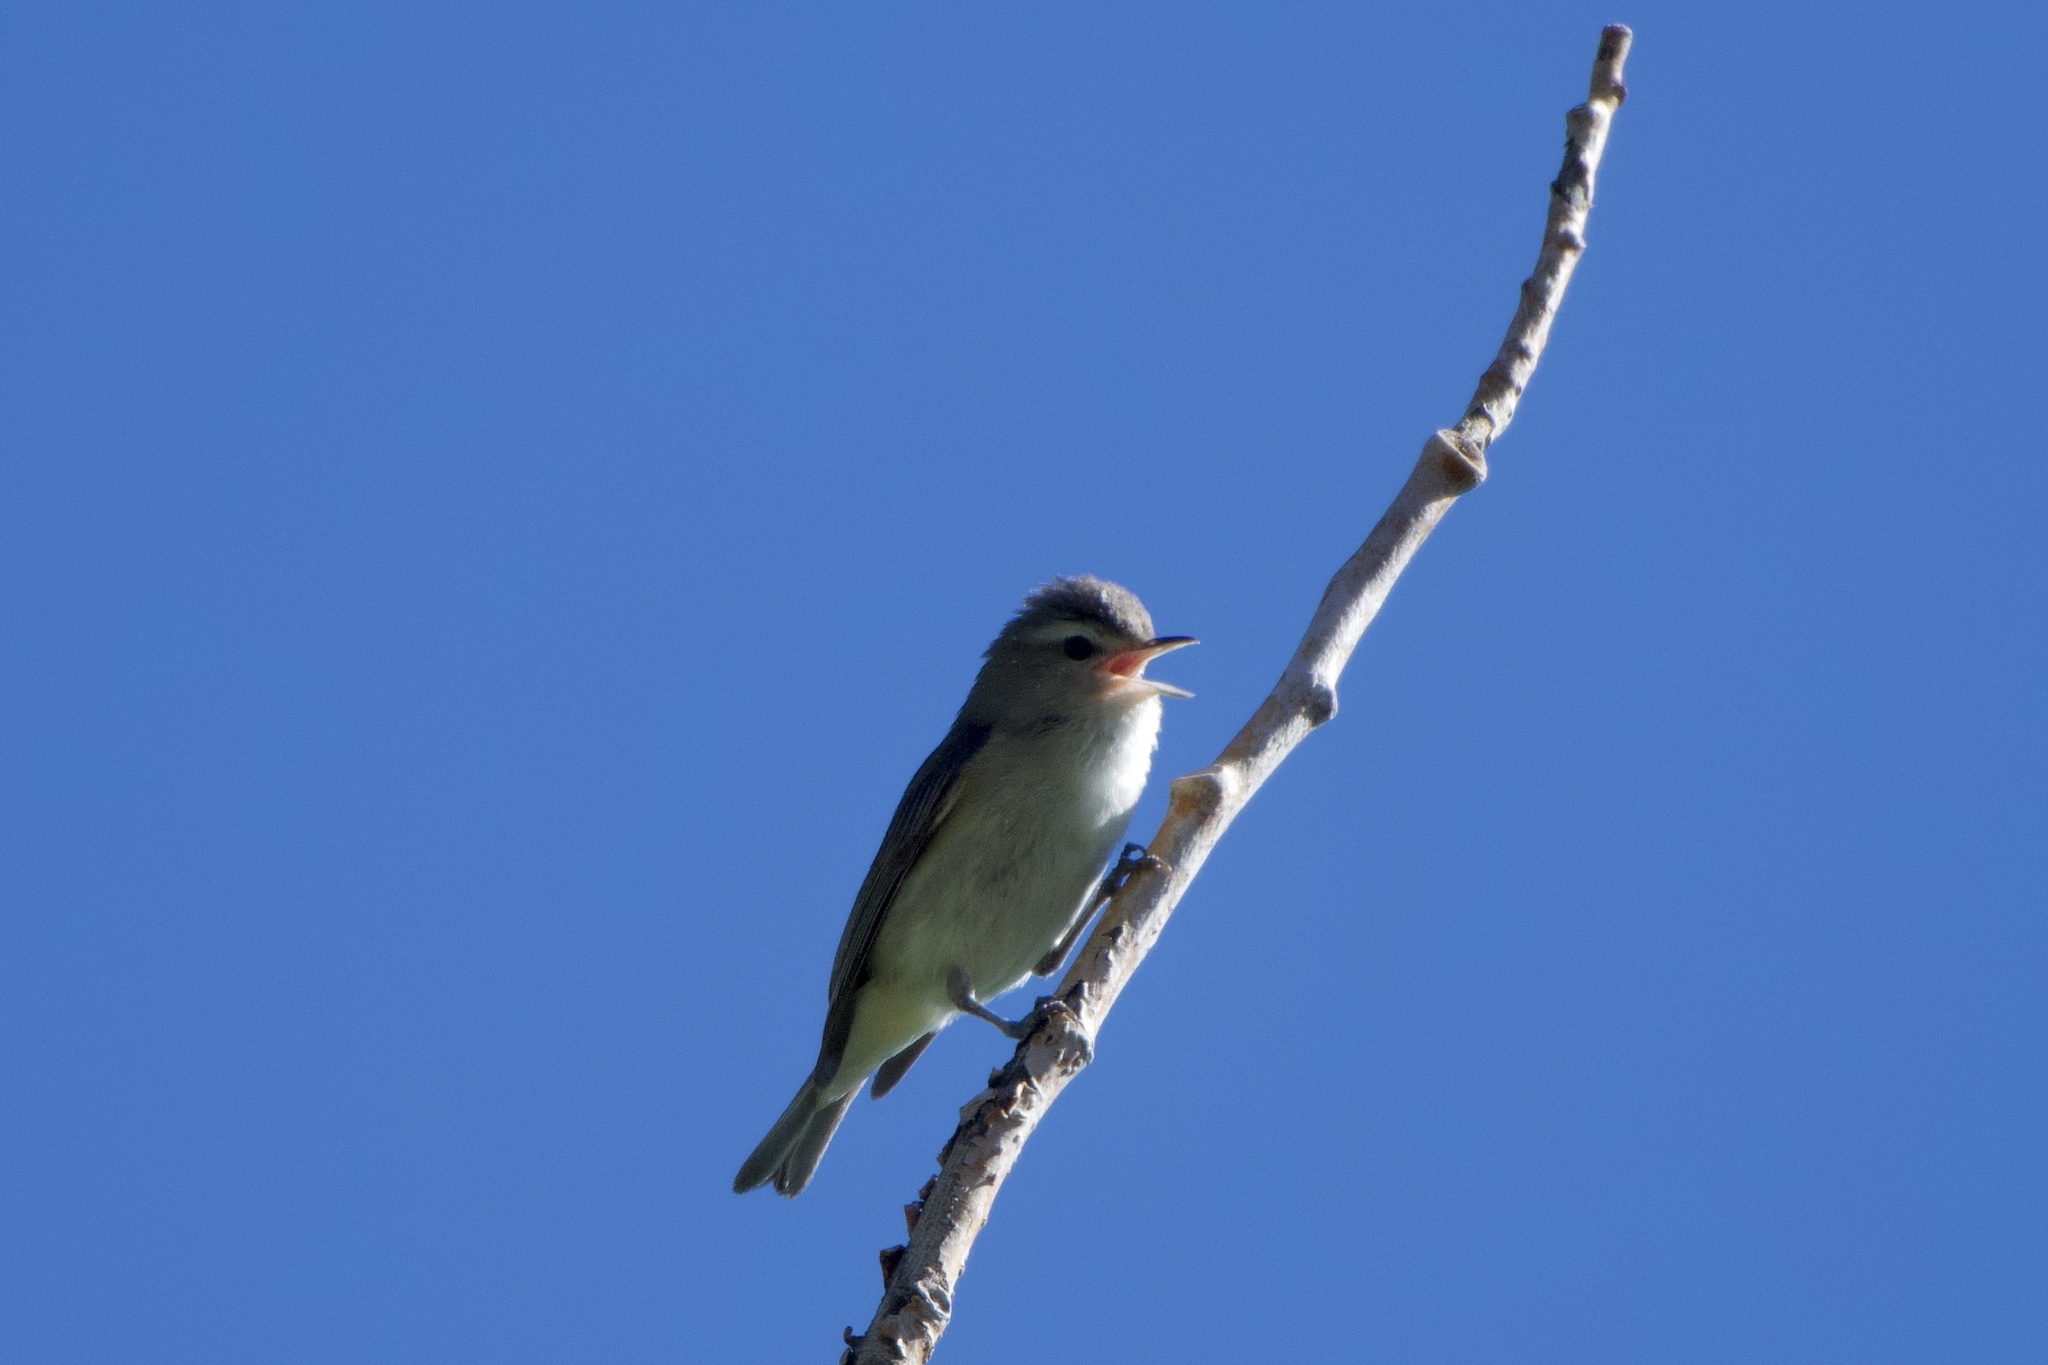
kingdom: Animalia
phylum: Chordata
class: Aves
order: Passeriformes
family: Vireonidae
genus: Vireo
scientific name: Vireo gilvus
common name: Warbling vireo
